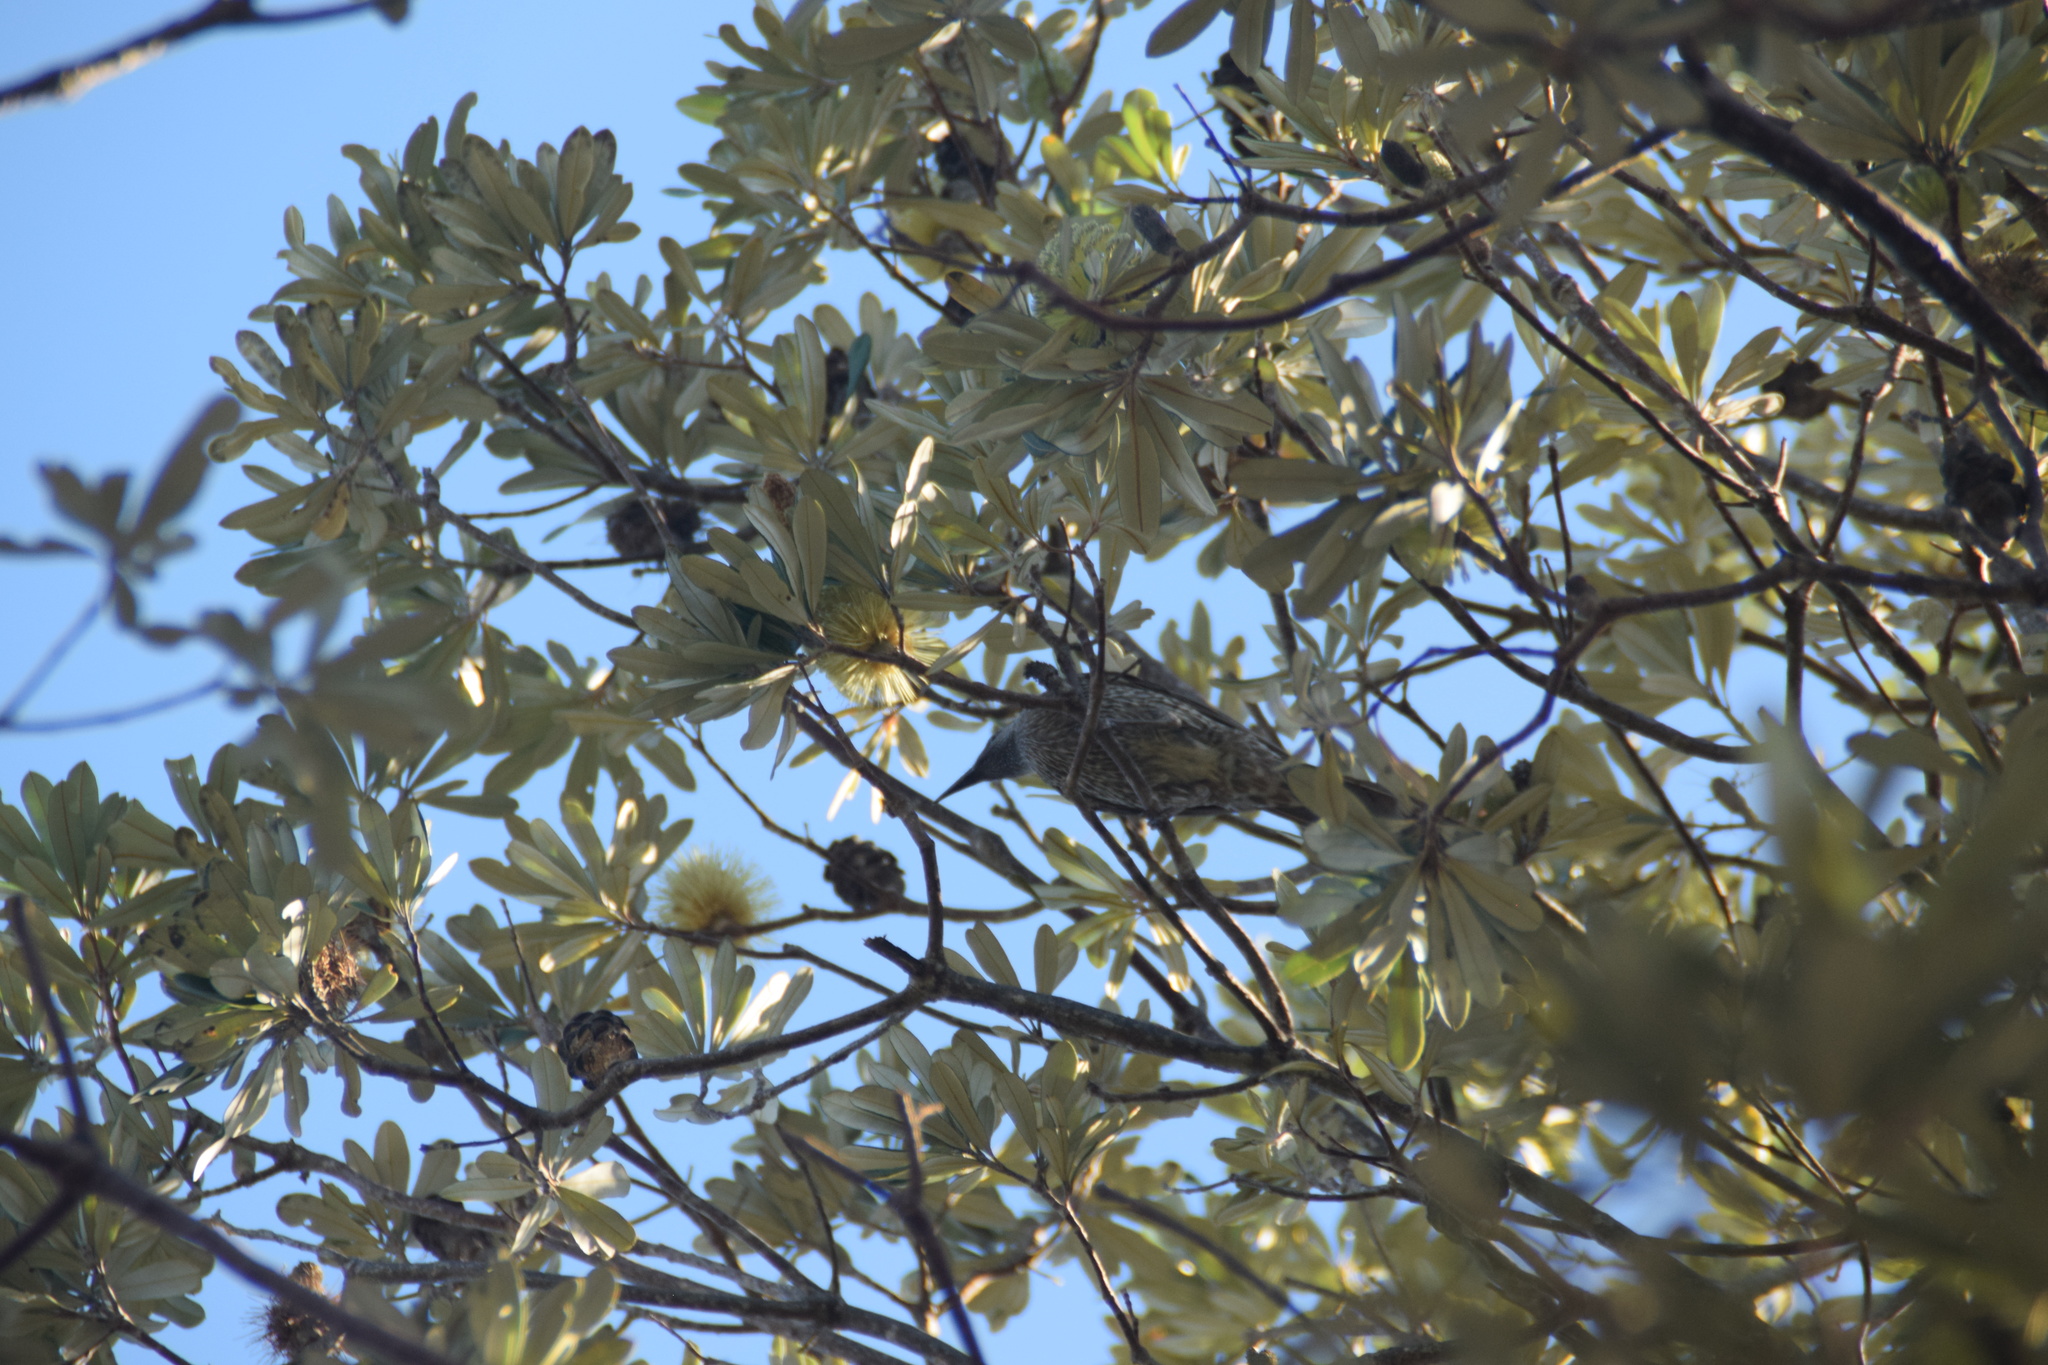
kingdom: Animalia
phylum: Chordata
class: Aves
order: Passeriformes
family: Meliphagidae
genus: Anthochaera
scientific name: Anthochaera chrysoptera
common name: Little wattlebird
